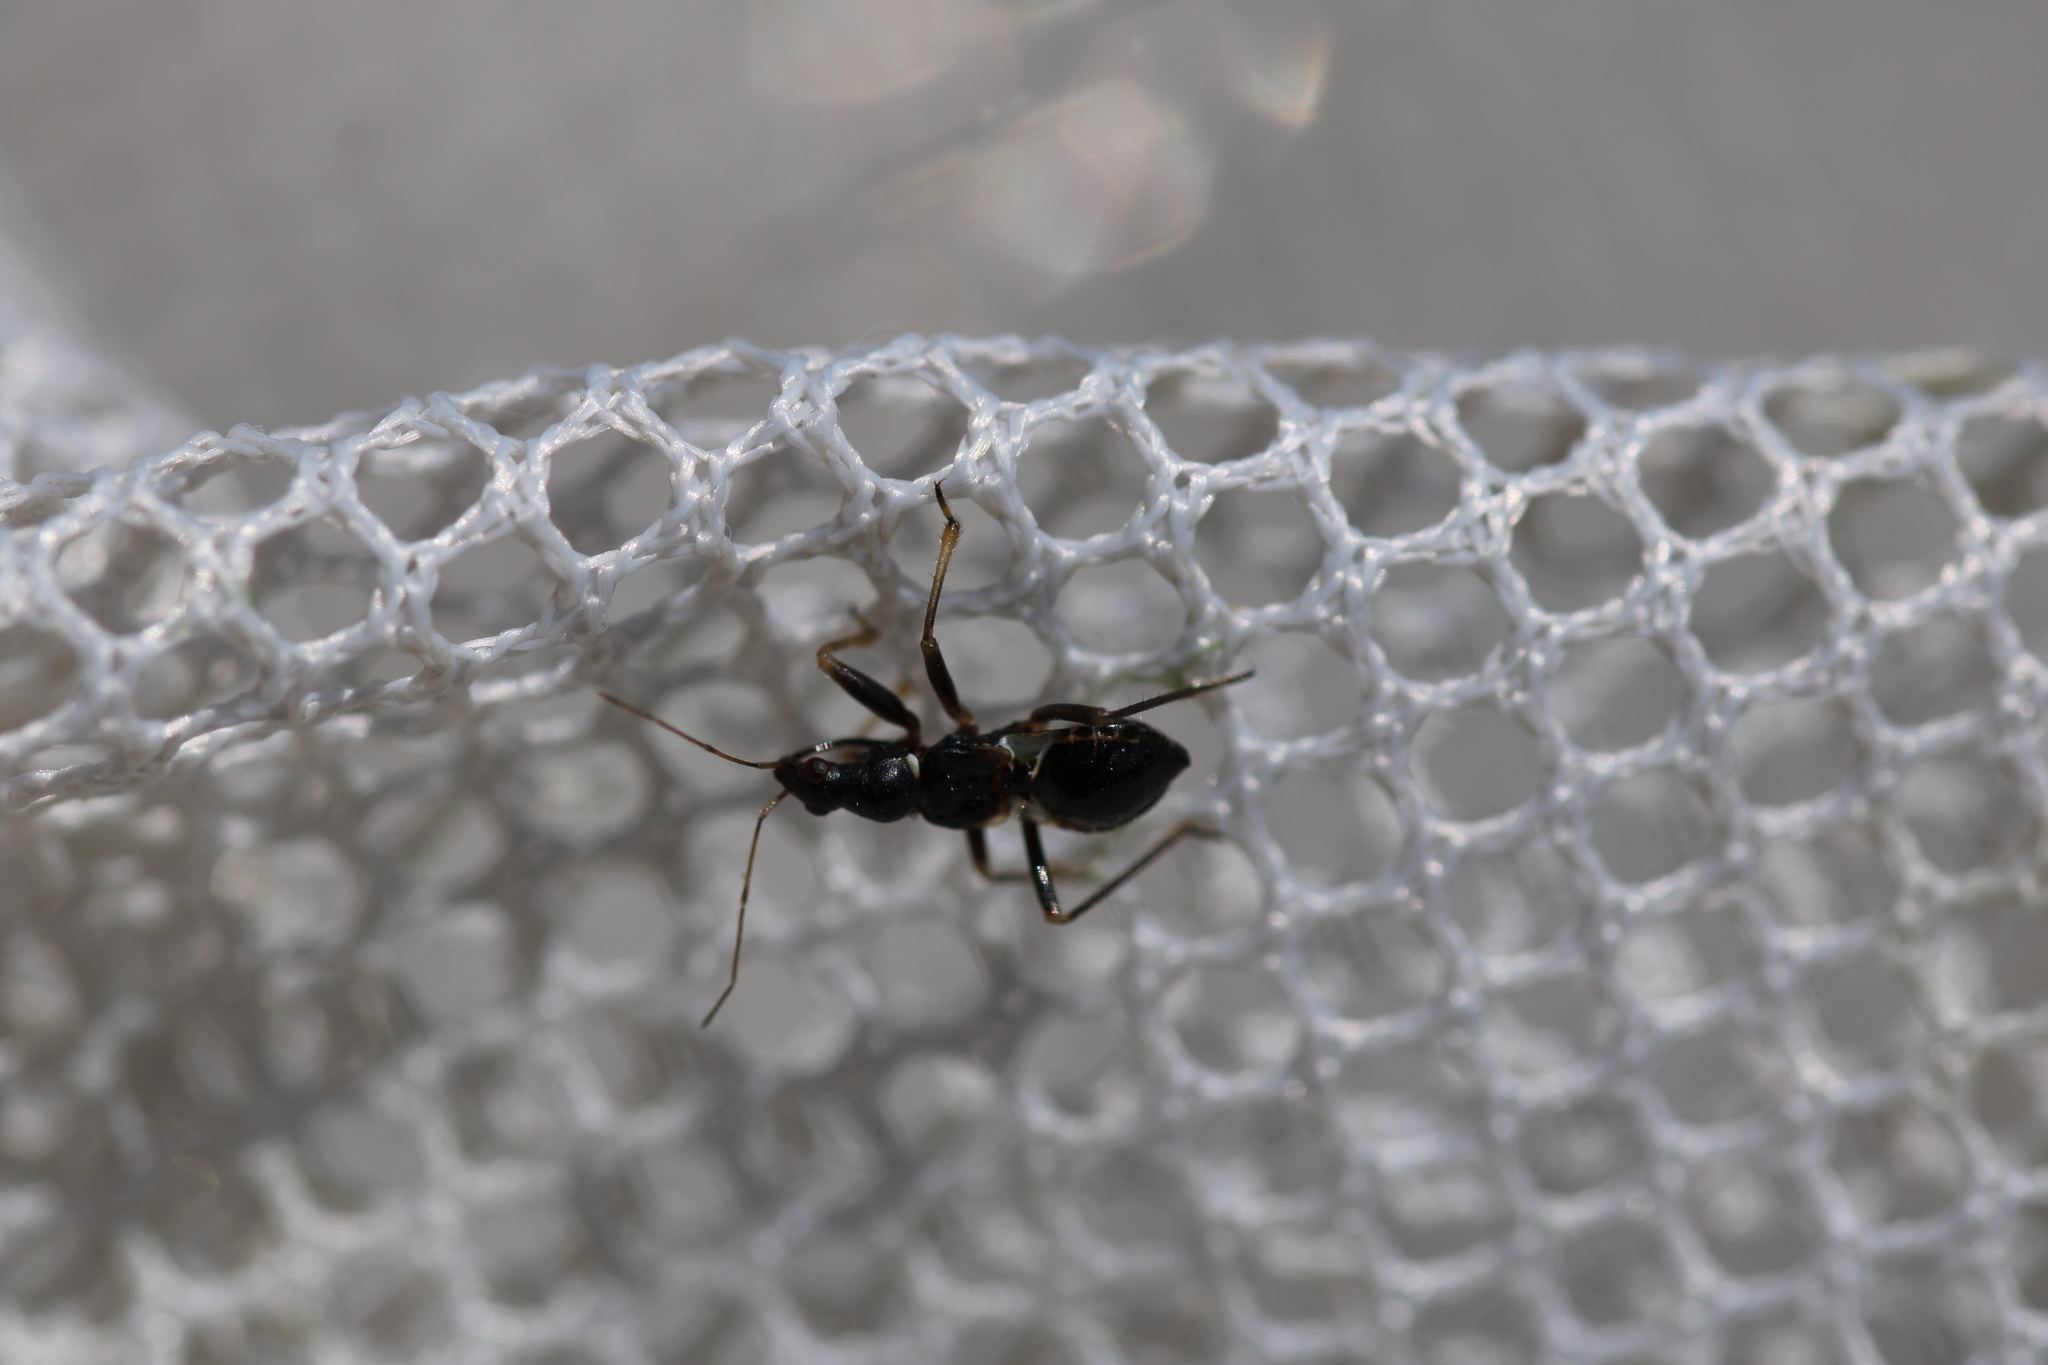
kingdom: Animalia
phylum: Arthropoda
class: Insecta
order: Hemiptera
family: Nabidae
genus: Himacerus
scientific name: Himacerus mirmicoides
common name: Ant damsel bug
